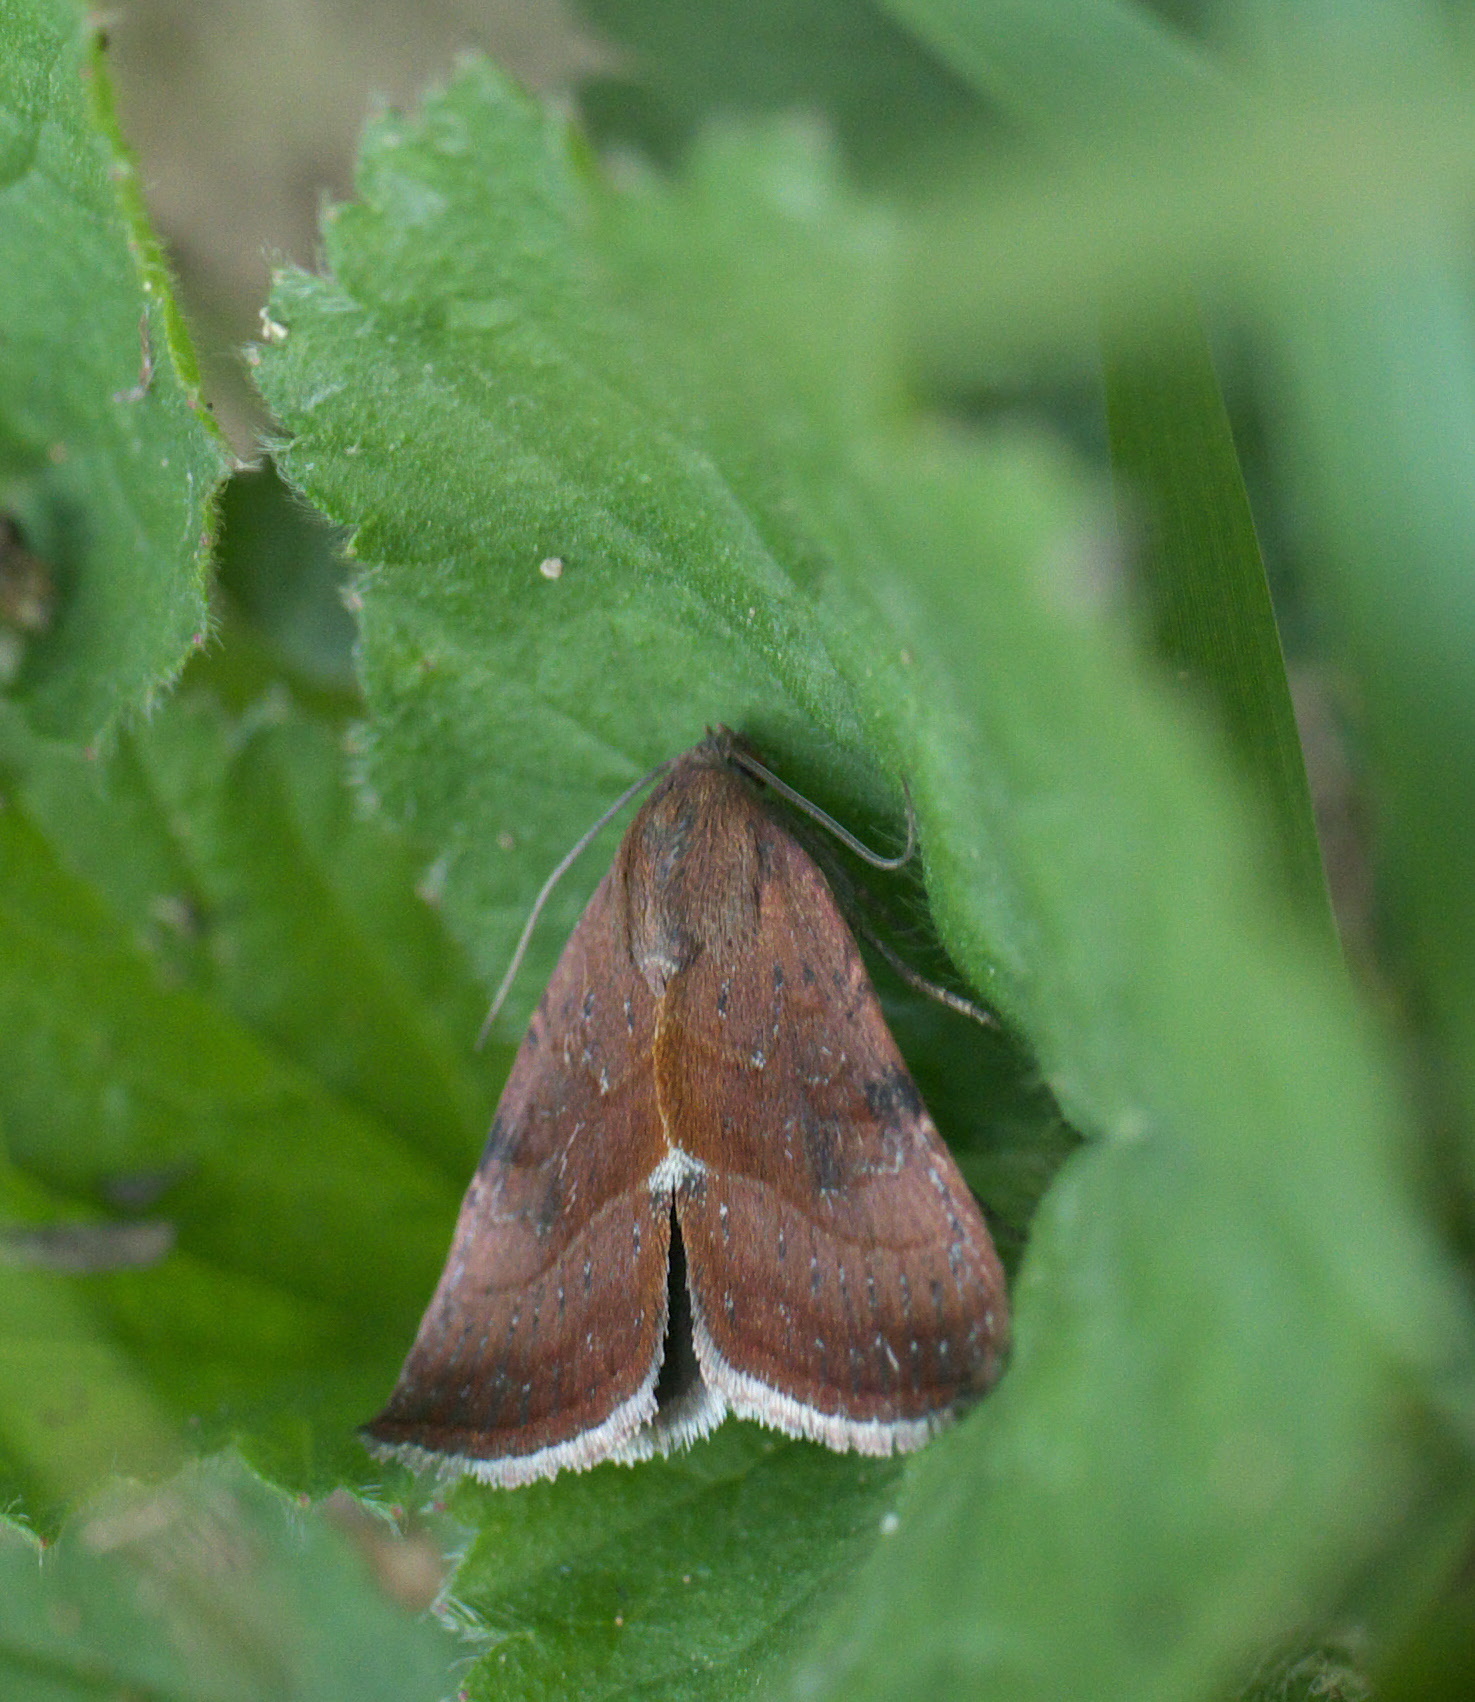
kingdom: Animalia
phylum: Arthropoda
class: Insecta
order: Lepidoptera
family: Noctuidae
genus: Galgula
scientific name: Galgula partita
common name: Wedgeling
